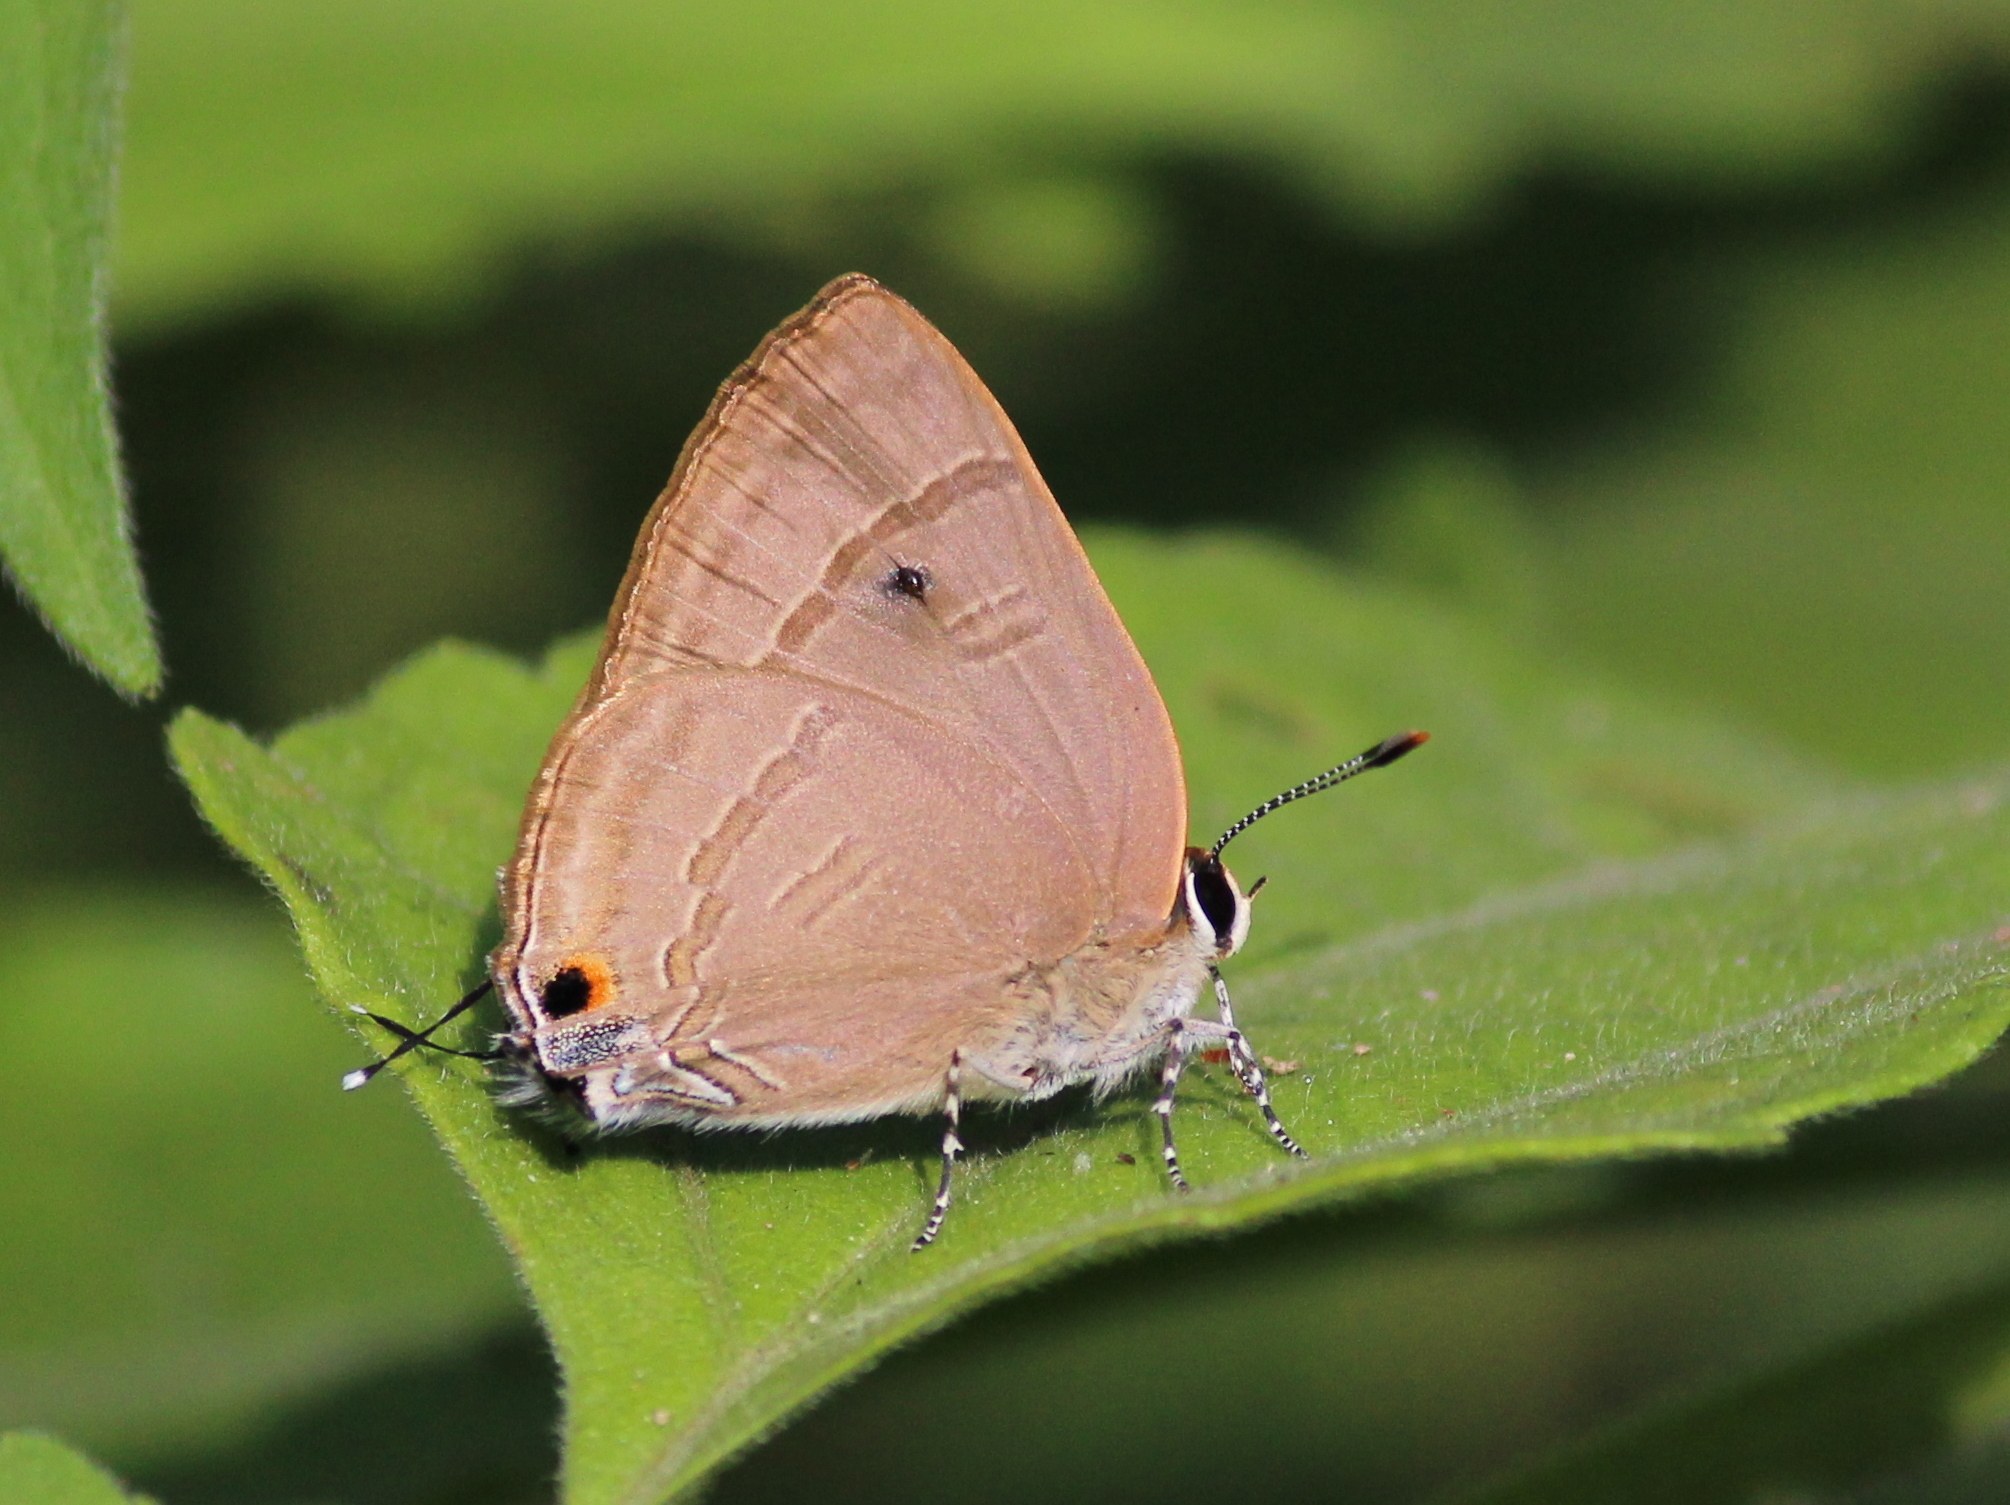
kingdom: Animalia
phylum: Arthropoda
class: Insecta
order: Lepidoptera
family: Lycaenidae
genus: Rapala
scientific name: Rapala manea
